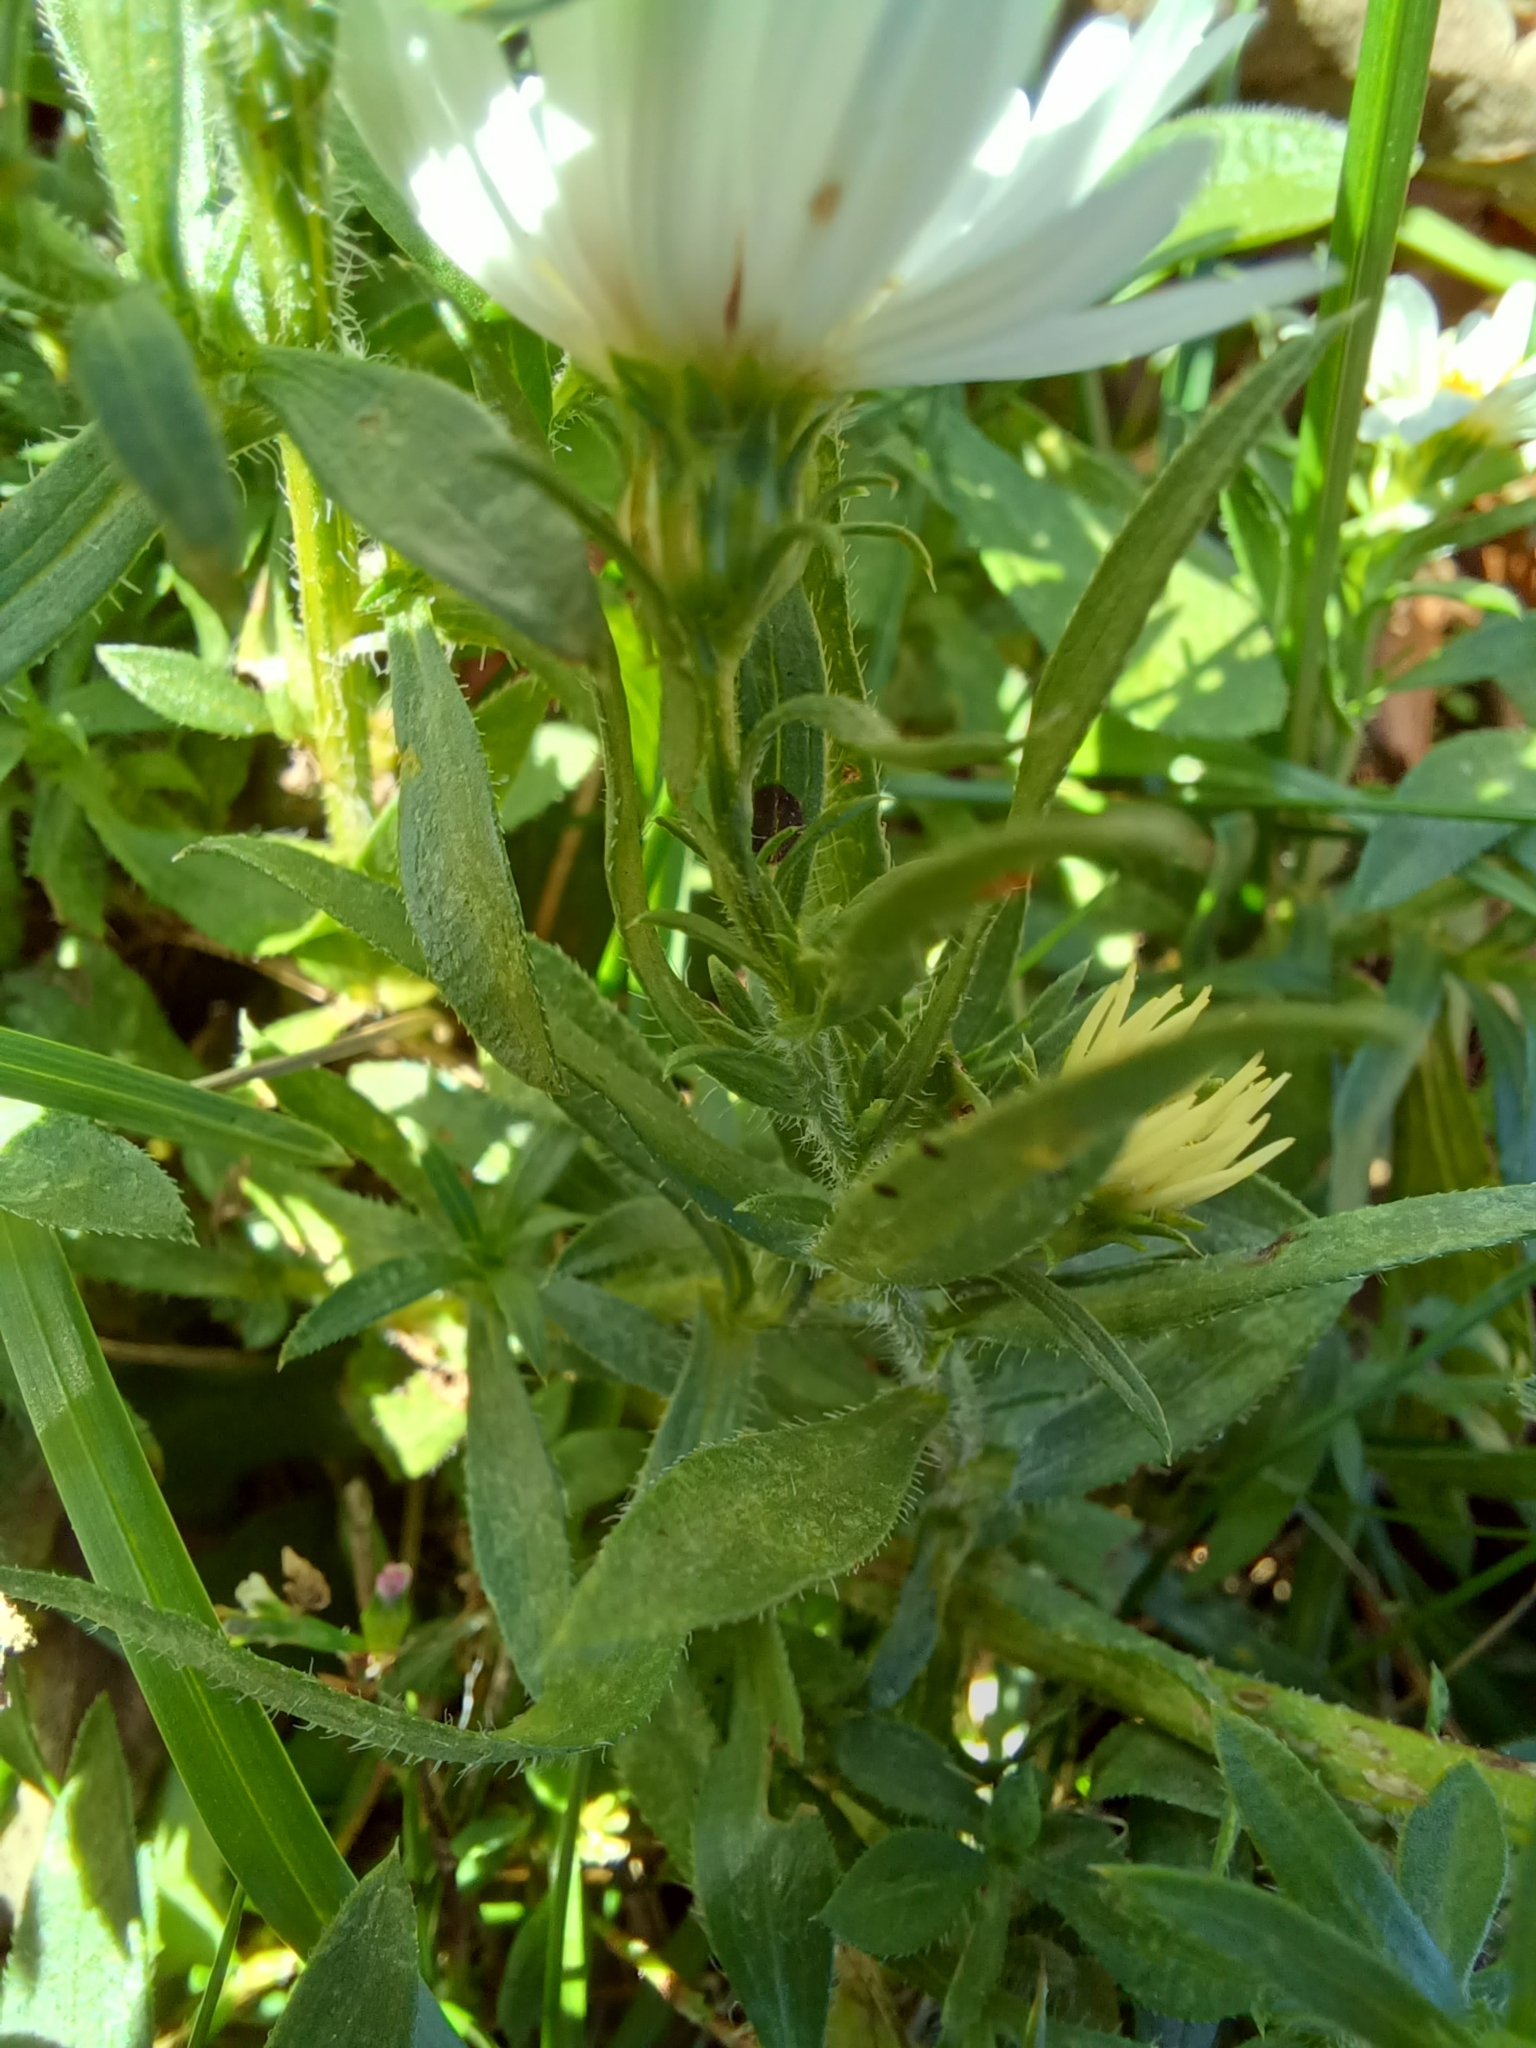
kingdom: Plantae
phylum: Tracheophyta
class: Magnoliopsida
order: Asterales
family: Asteraceae
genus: Symphyotrichum
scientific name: Symphyotrichum pilosum
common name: Awl aster
